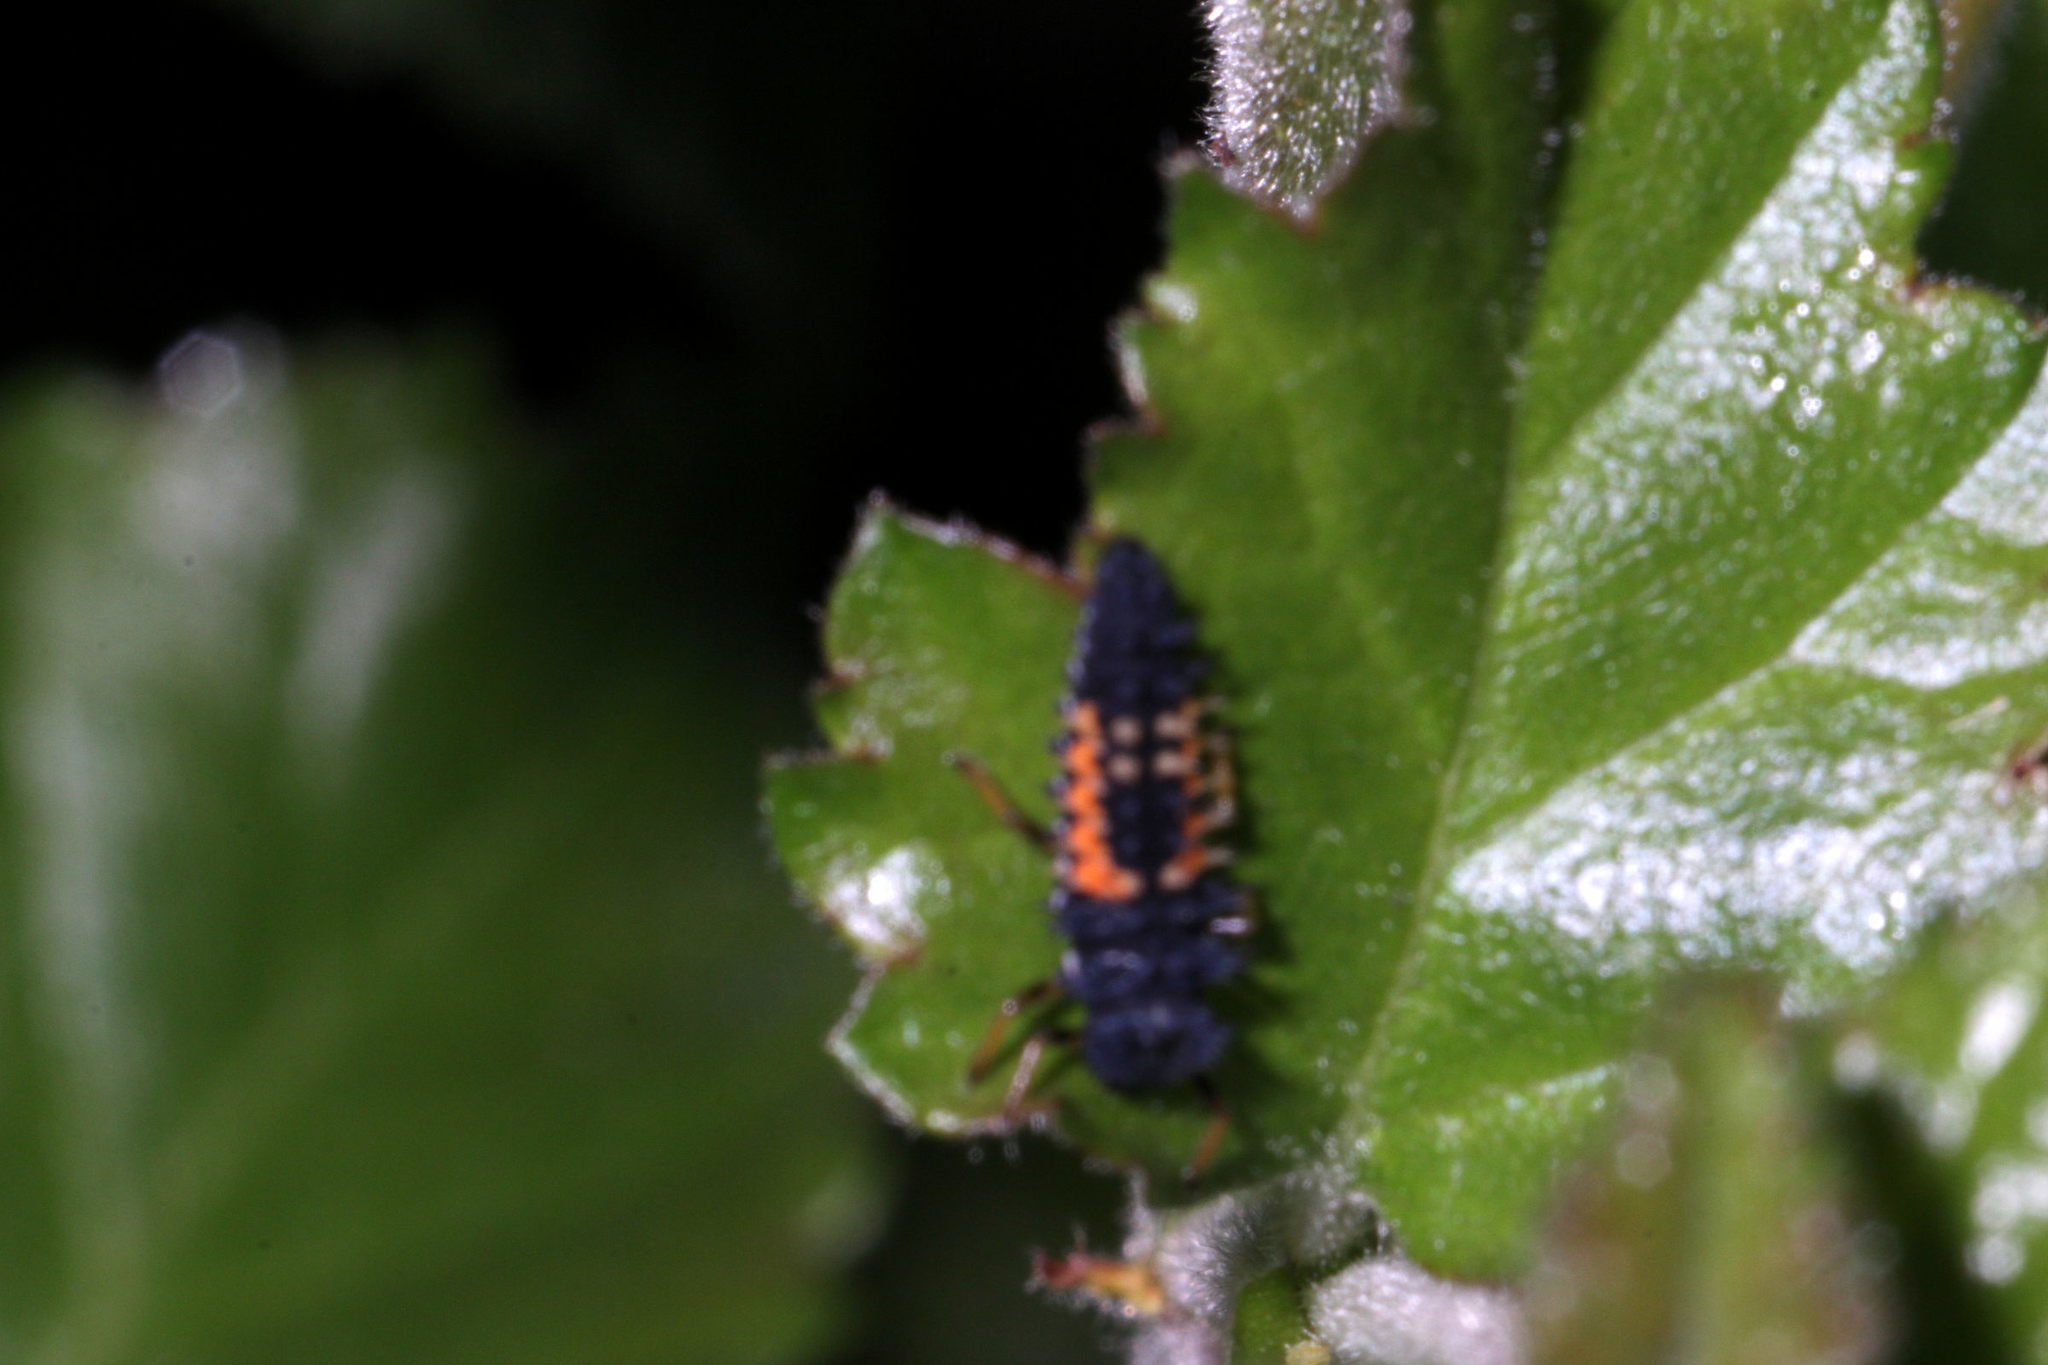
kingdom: Animalia
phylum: Arthropoda
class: Insecta
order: Coleoptera
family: Coccinellidae
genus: Harmonia
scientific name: Harmonia axyridis
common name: Harlequin ladybird
